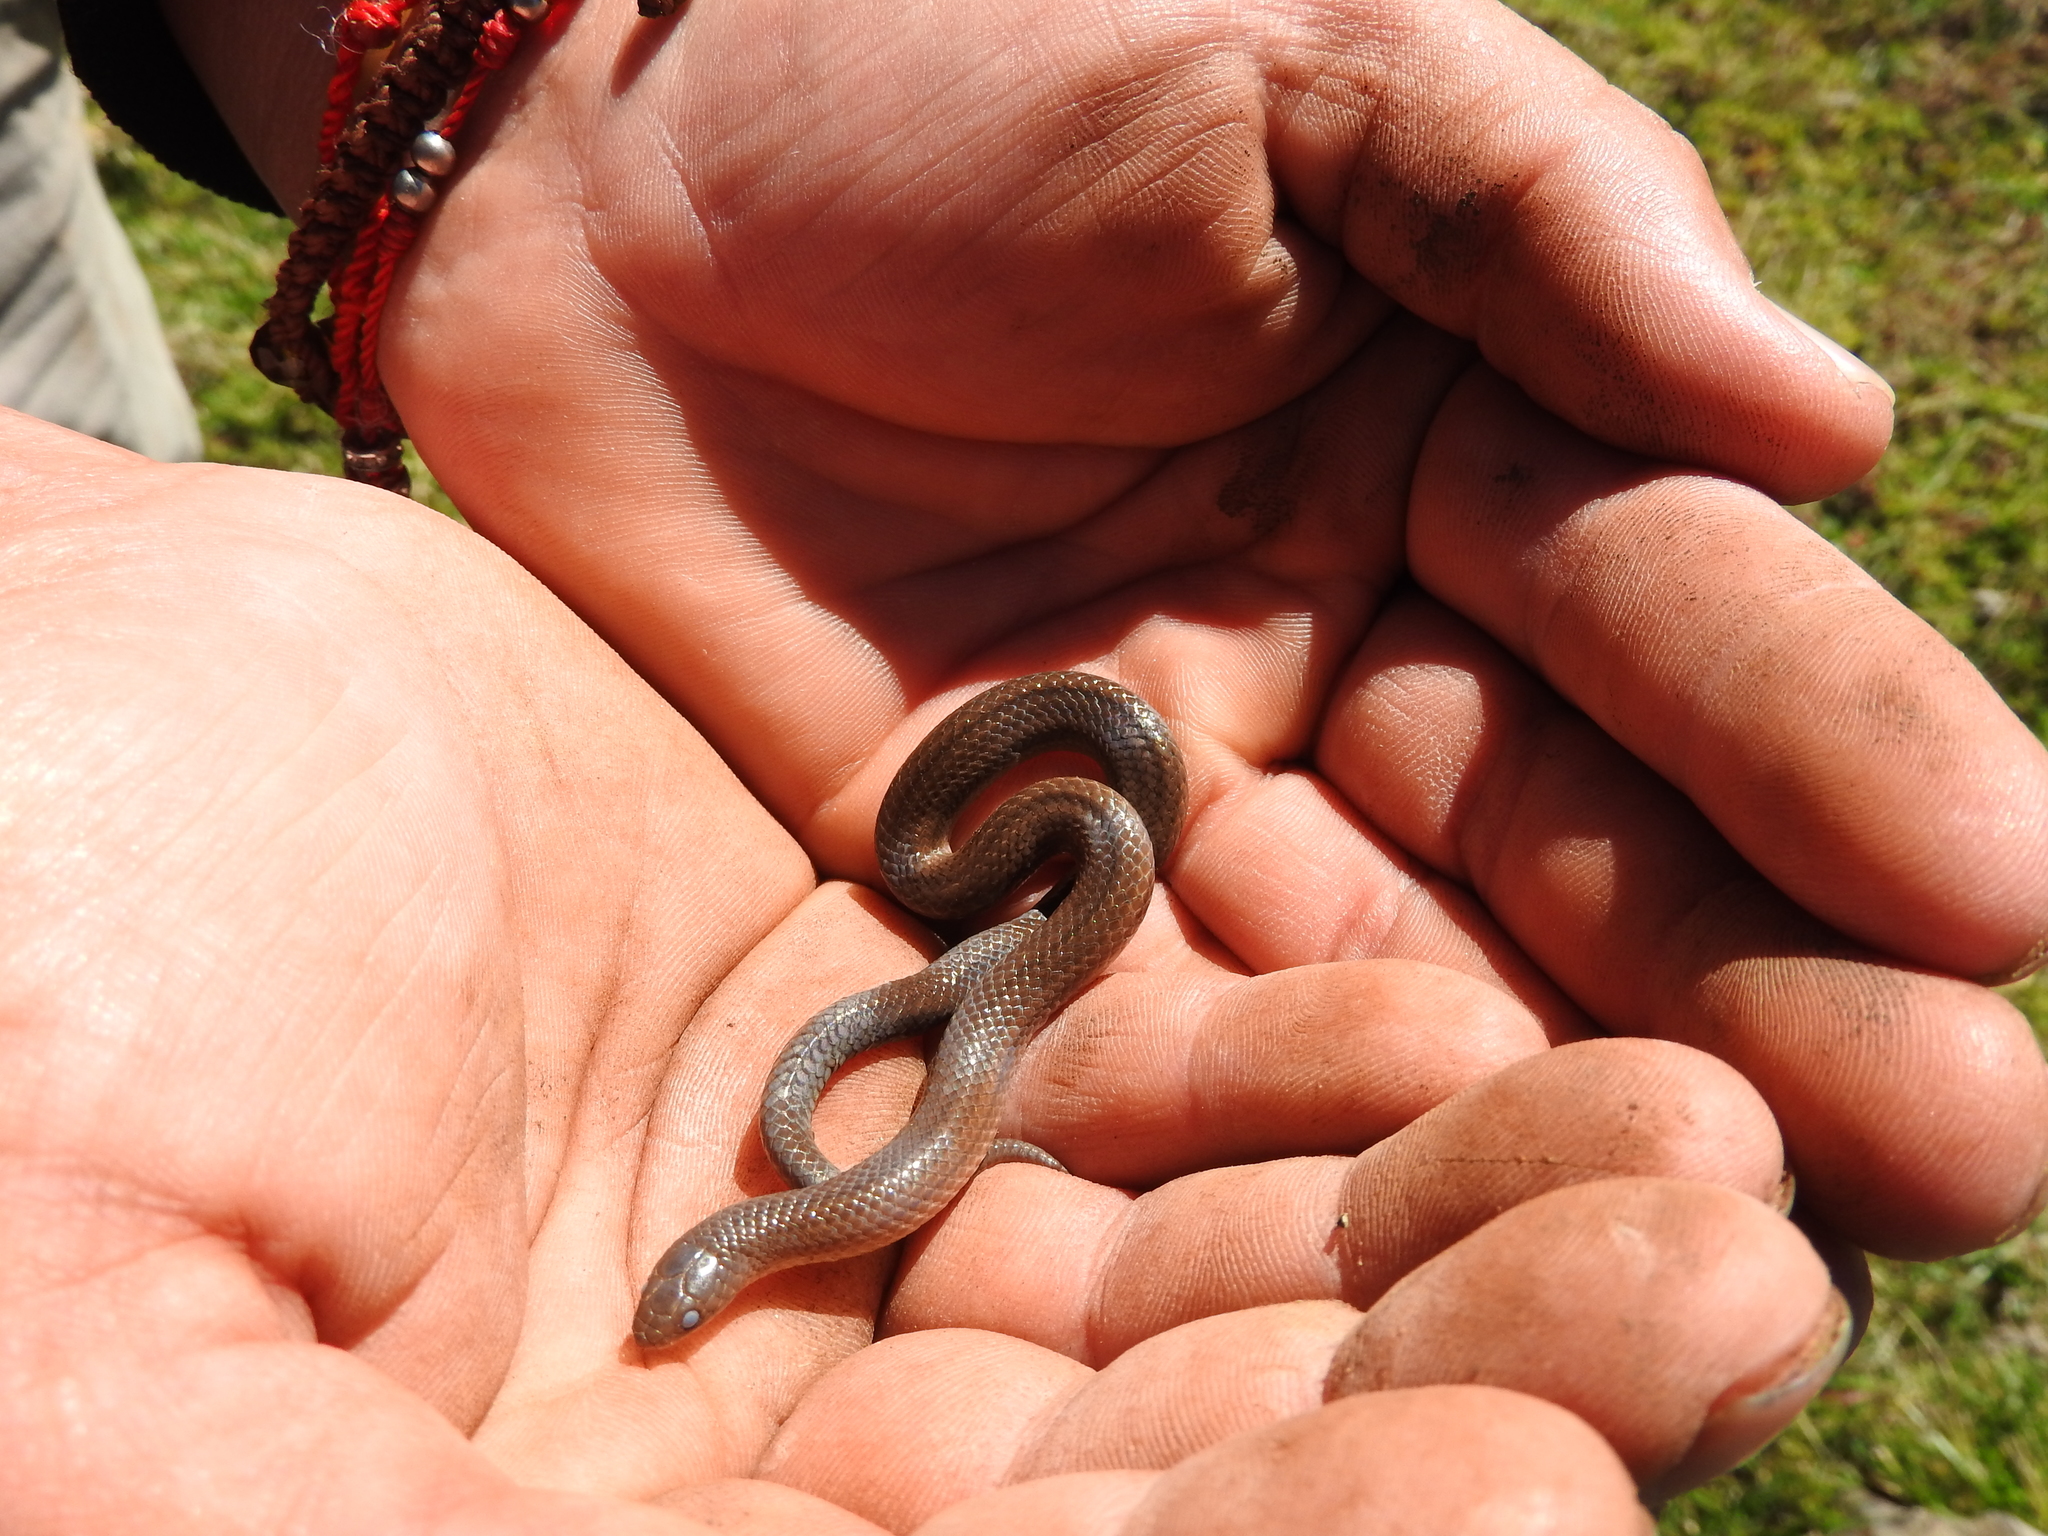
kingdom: Animalia
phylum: Chordata
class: Squamata
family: Colubridae
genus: Conopsis
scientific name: Conopsis nasus
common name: Largenose earth snake
